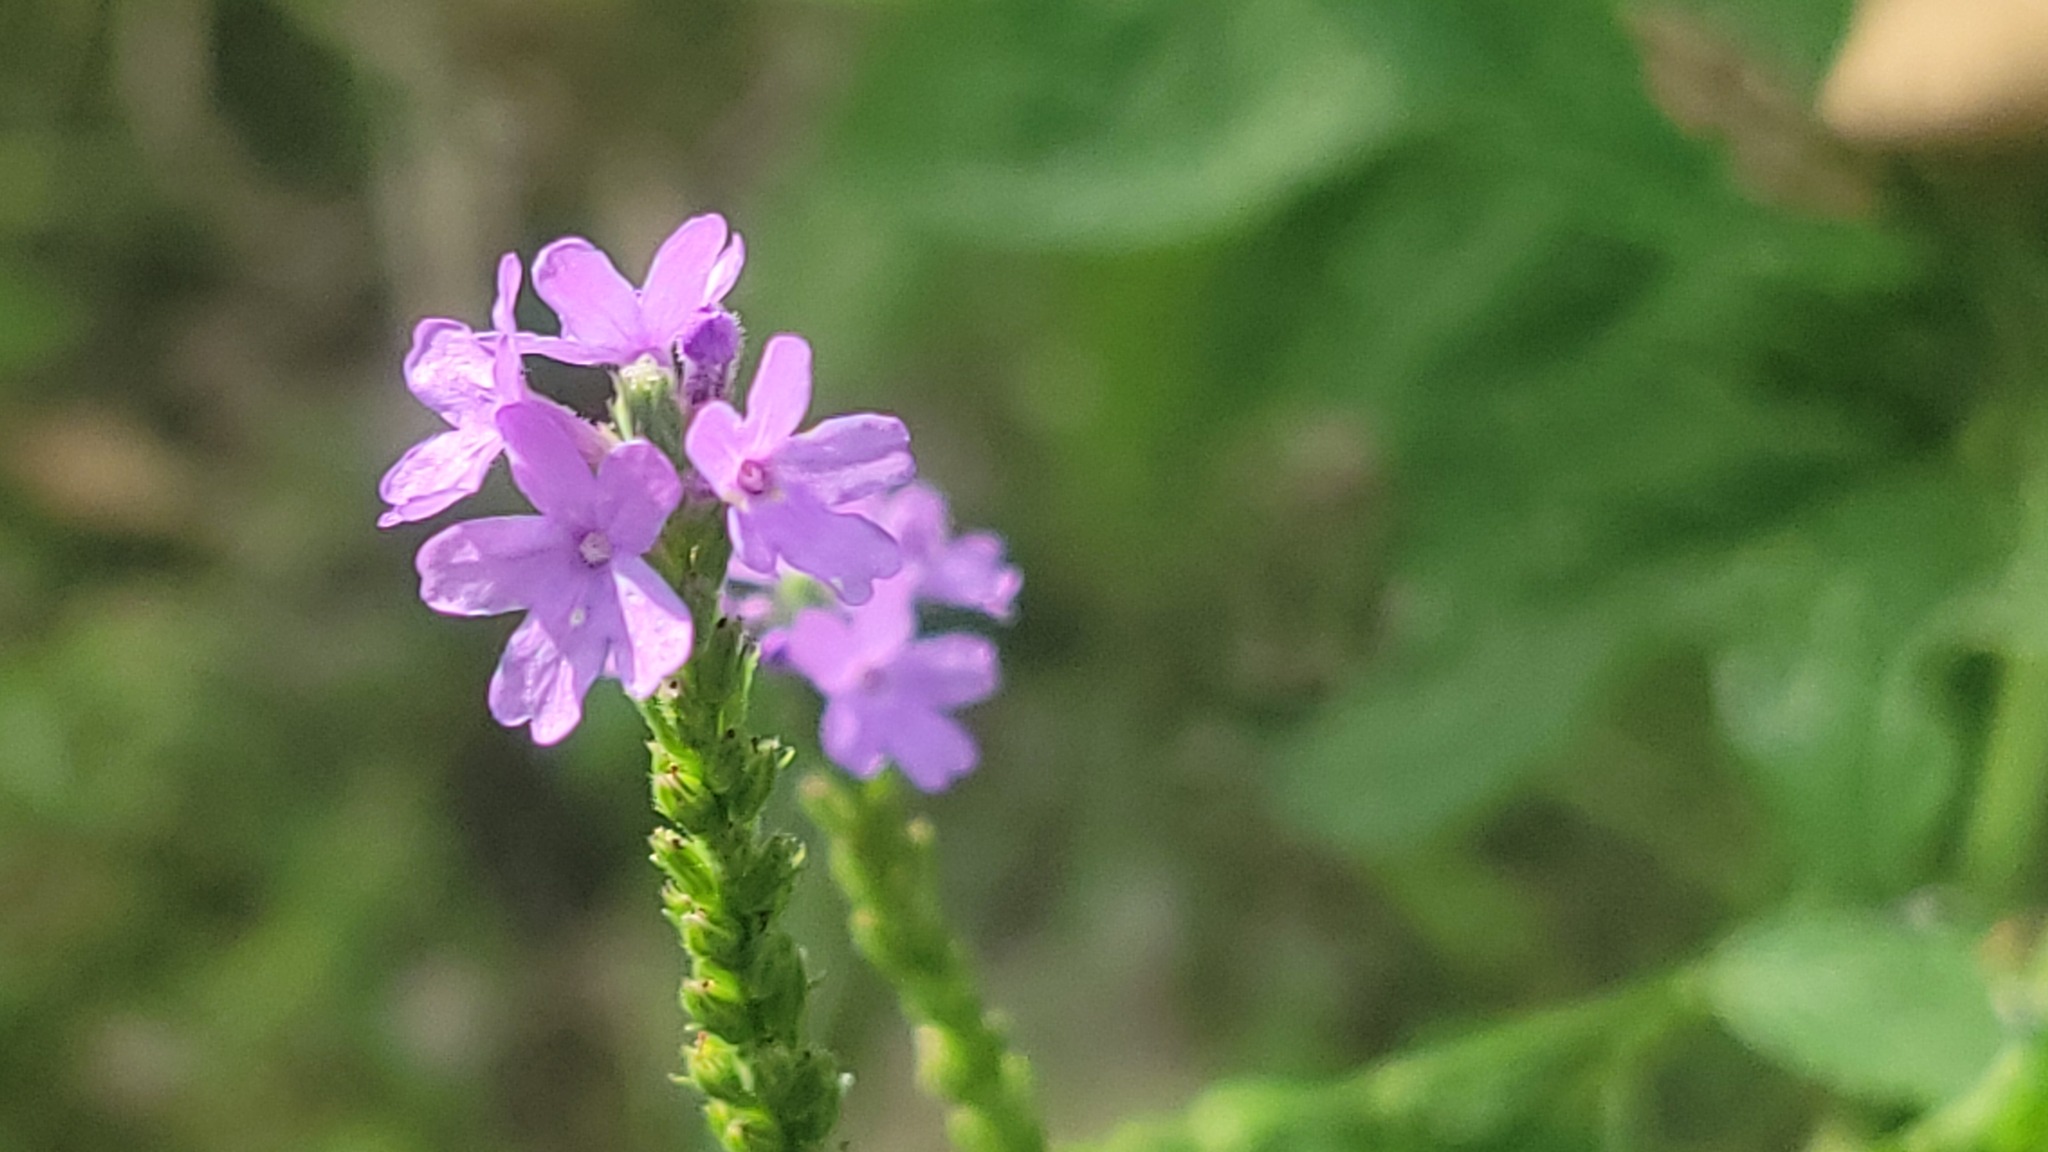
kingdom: Plantae
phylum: Tracheophyta
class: Magnoliopsida
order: Lamiales
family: Verbenaceae
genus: Verbena
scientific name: Verbena stricta
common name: Hoary vervain
